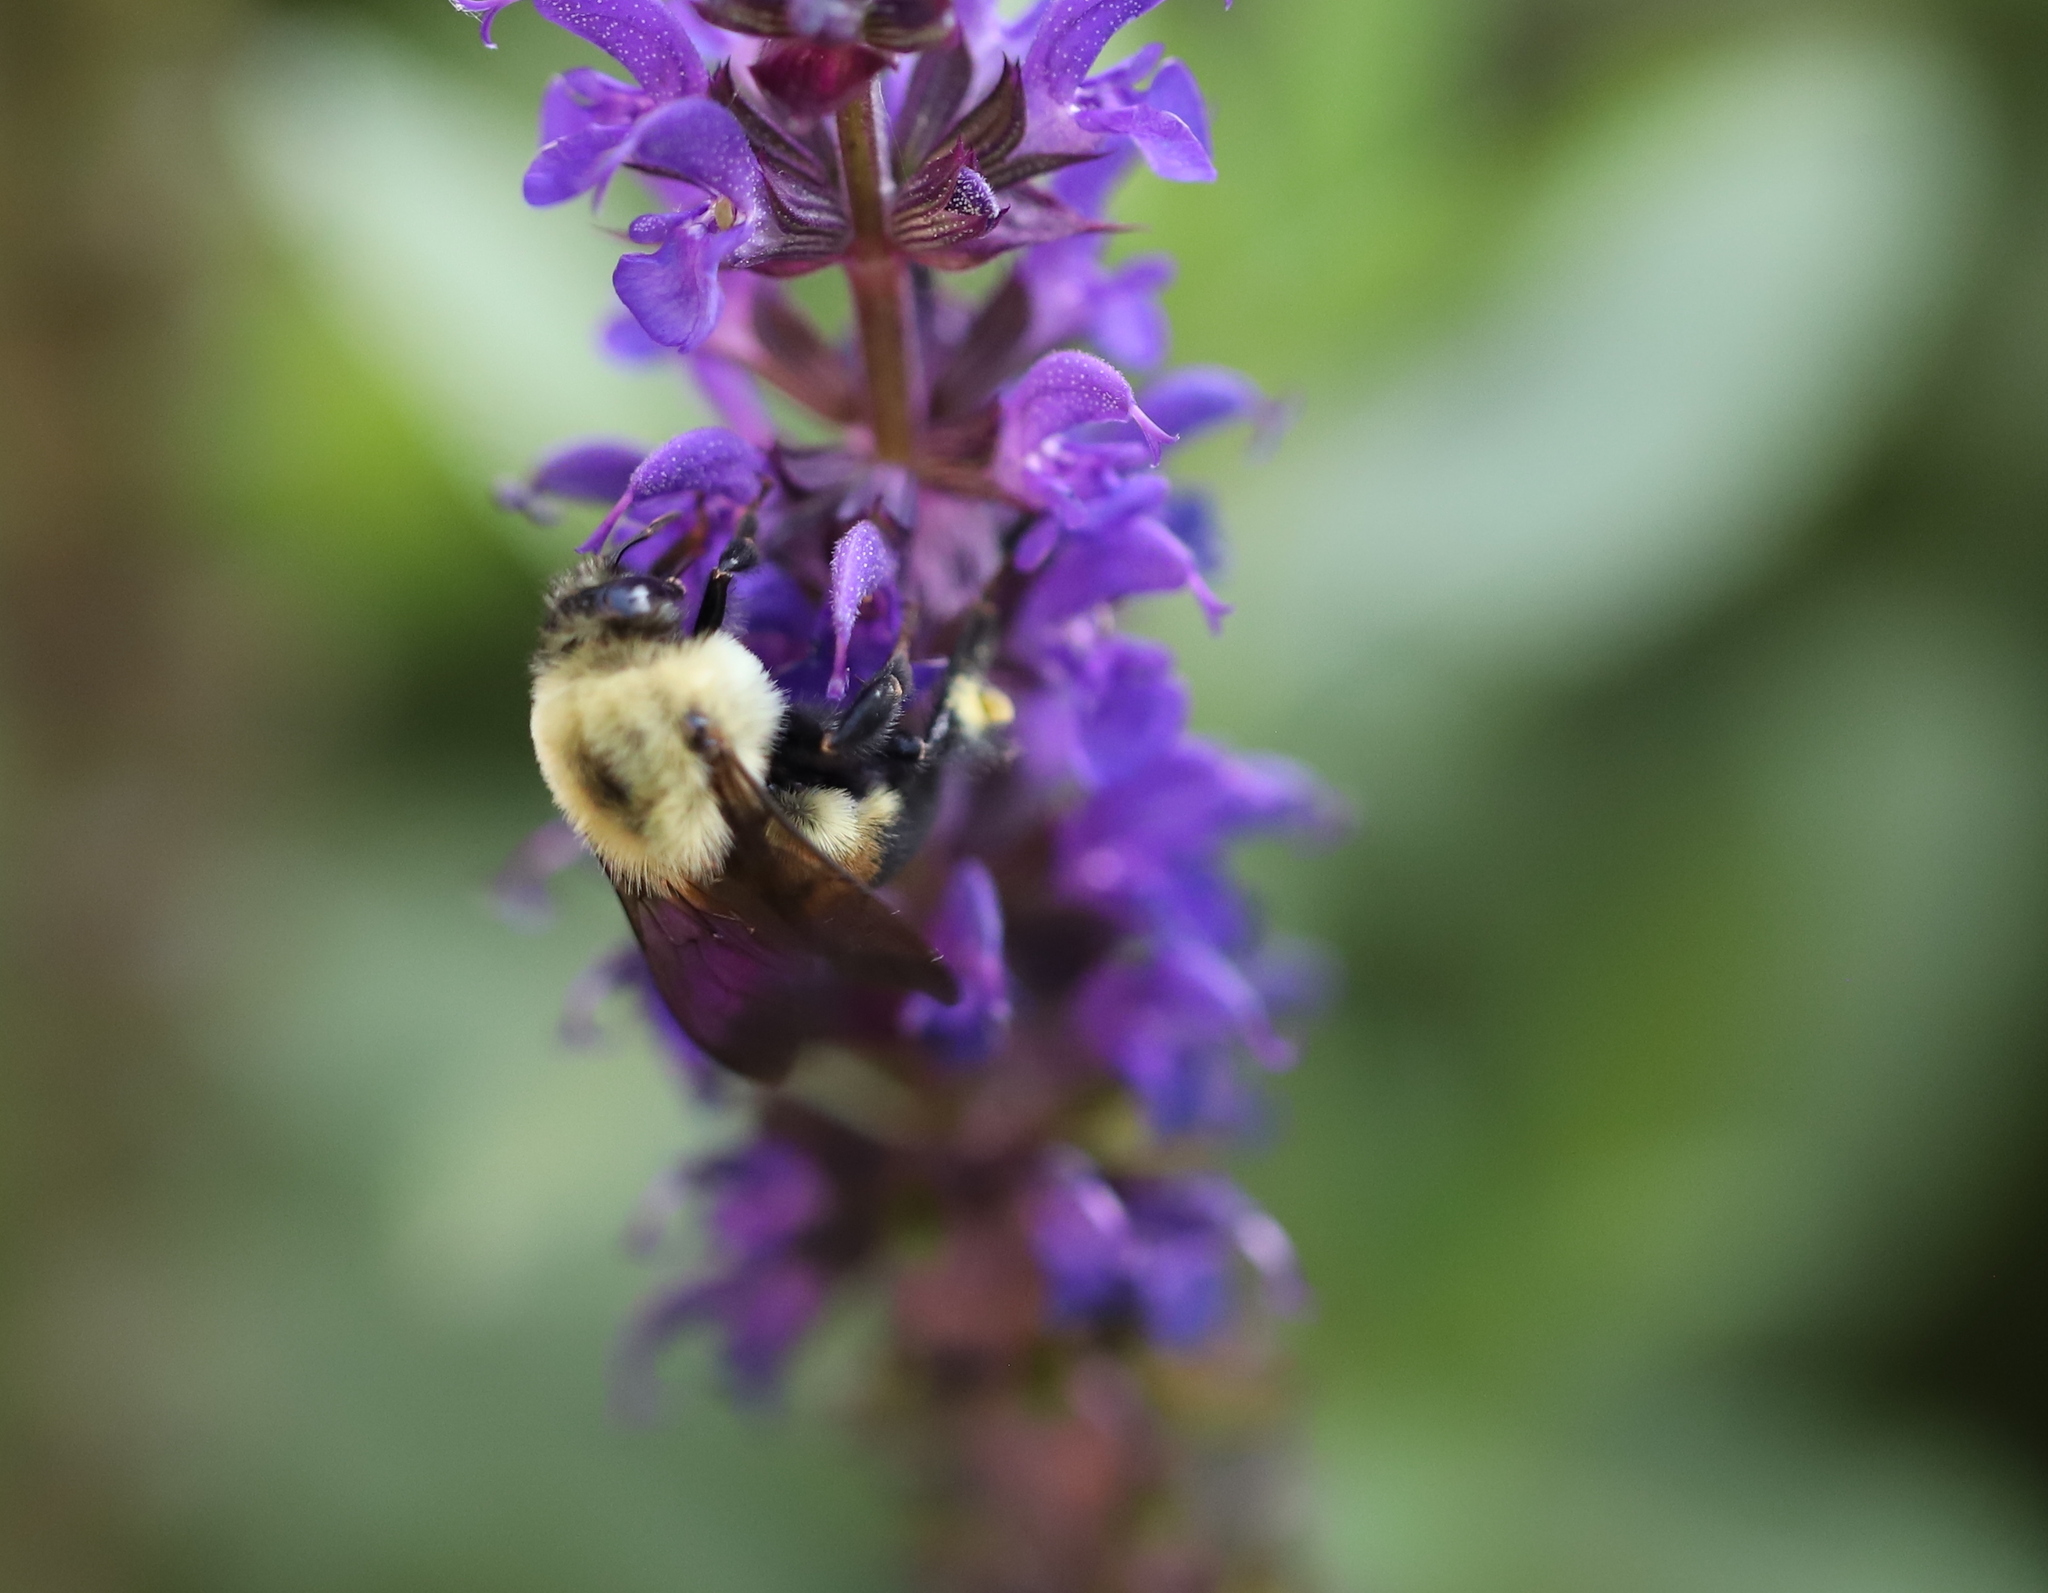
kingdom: Animalia
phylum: Arthropoda
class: Insecta
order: Hymenoptera
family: Apidae
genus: Bombus
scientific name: Bombus griseocollis
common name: Brown-belted bumble bee
